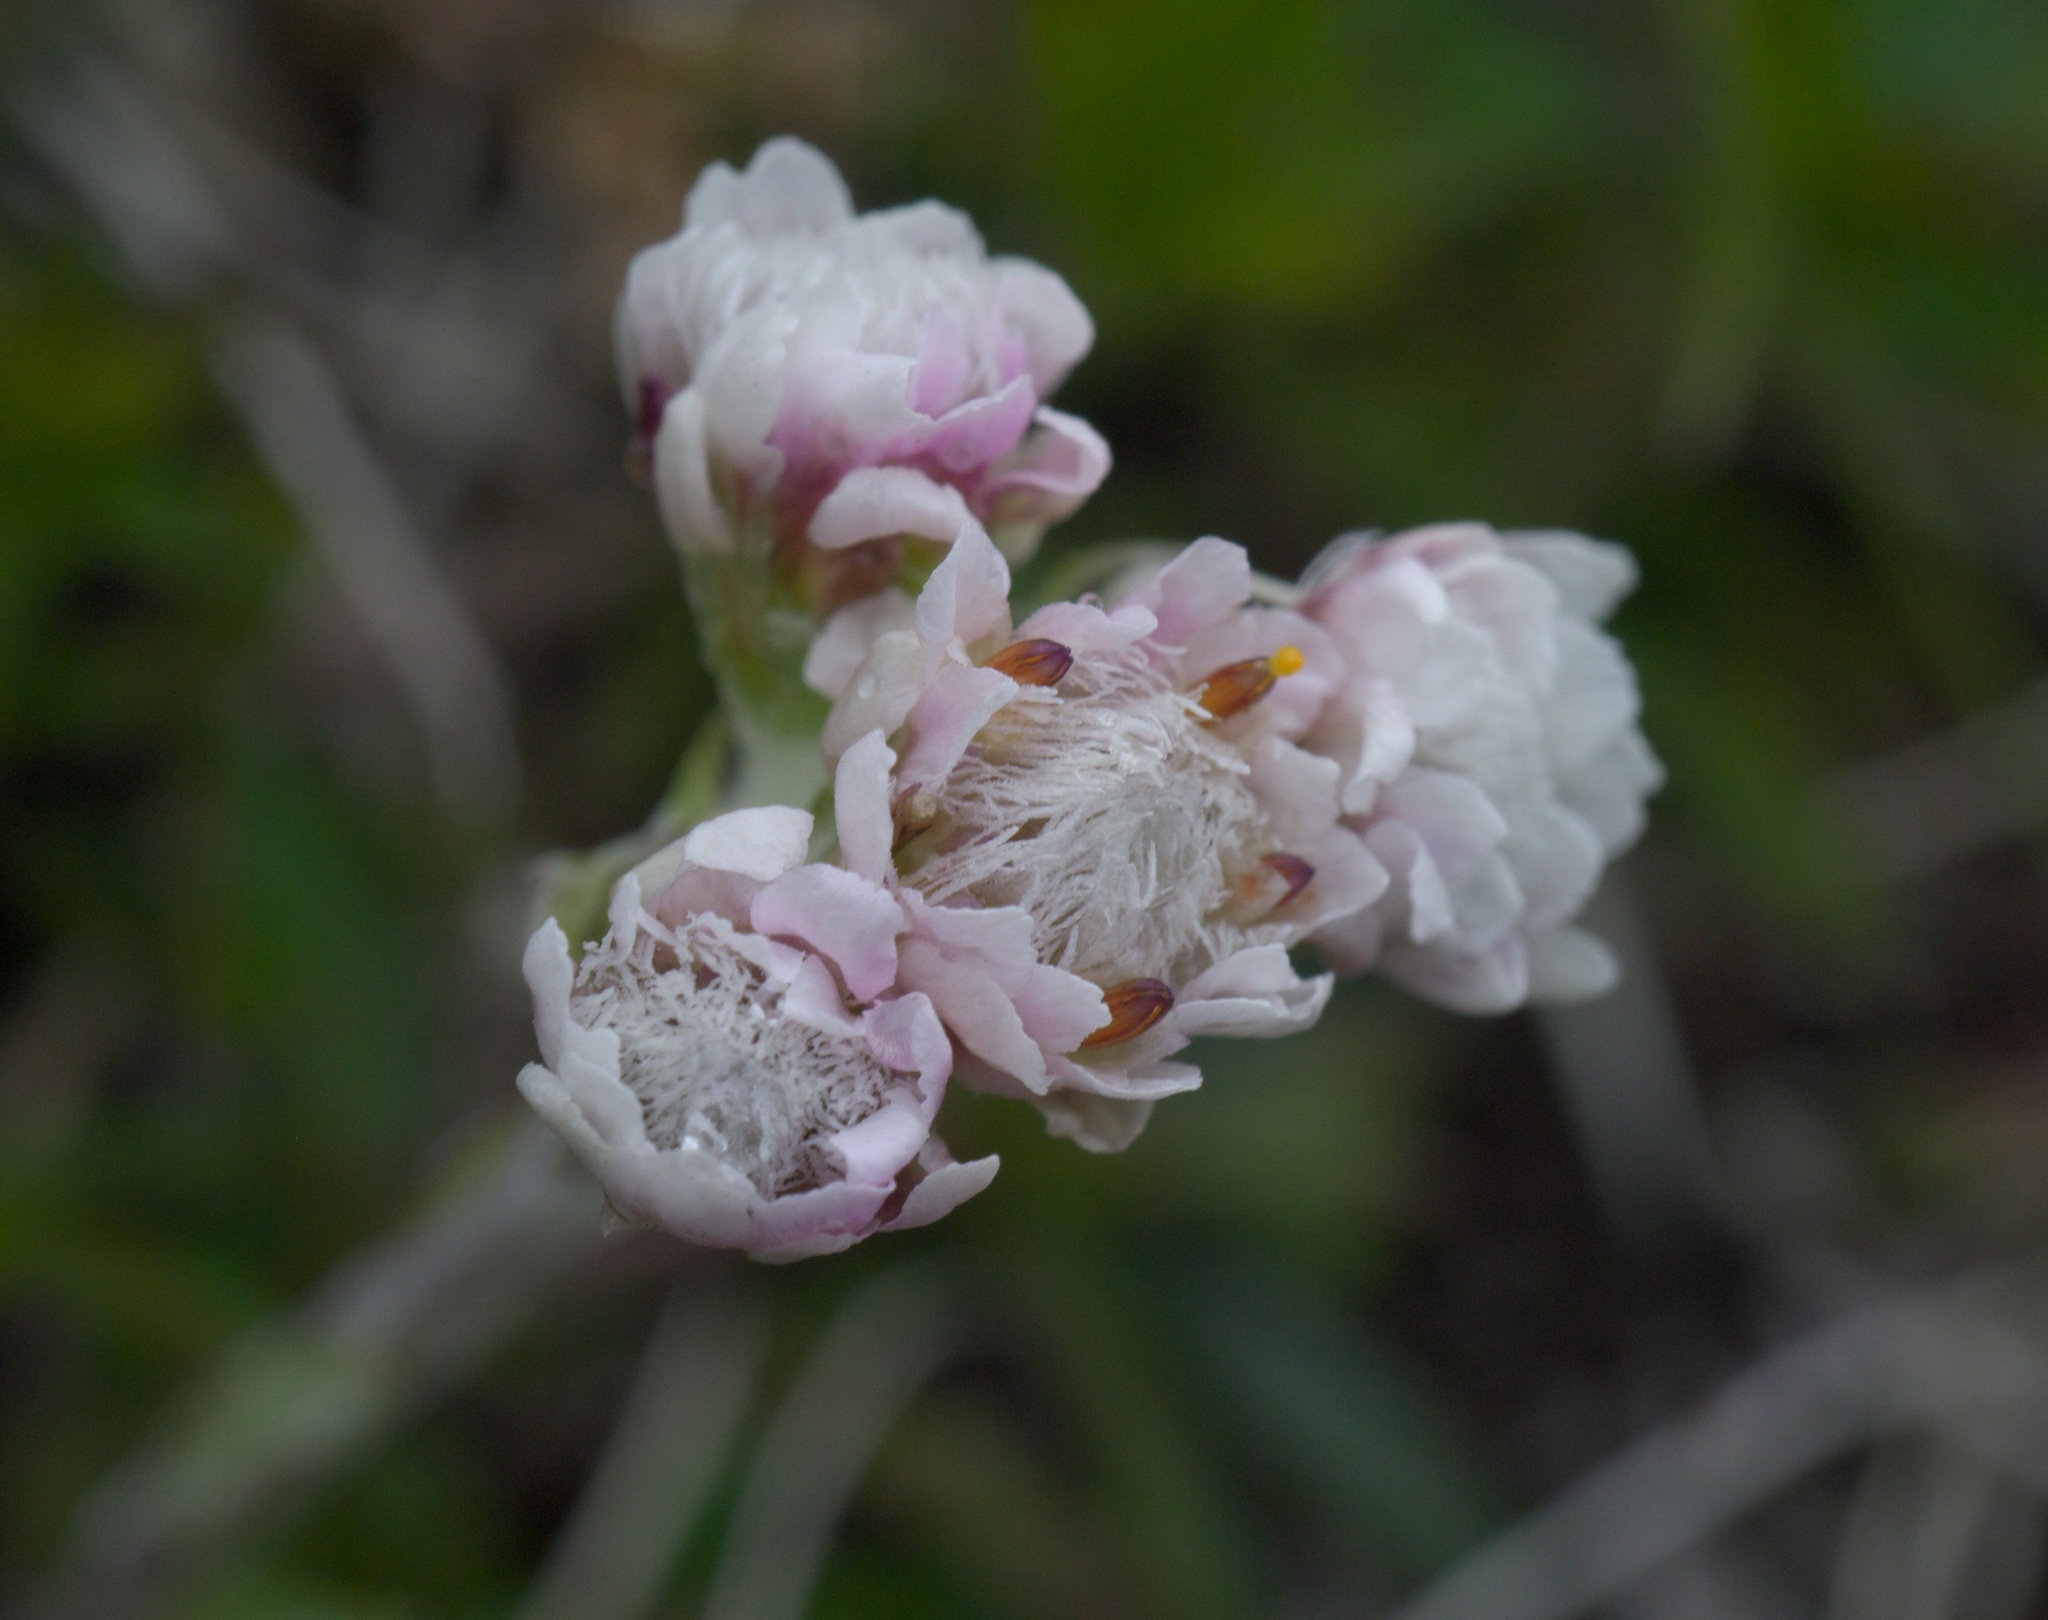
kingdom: Plantae
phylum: Tracheophyta
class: Magnoliopsida
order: Asterales
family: Asteraceae
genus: Antennaria
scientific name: Antennaria dioica
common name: Mountain everlasting
